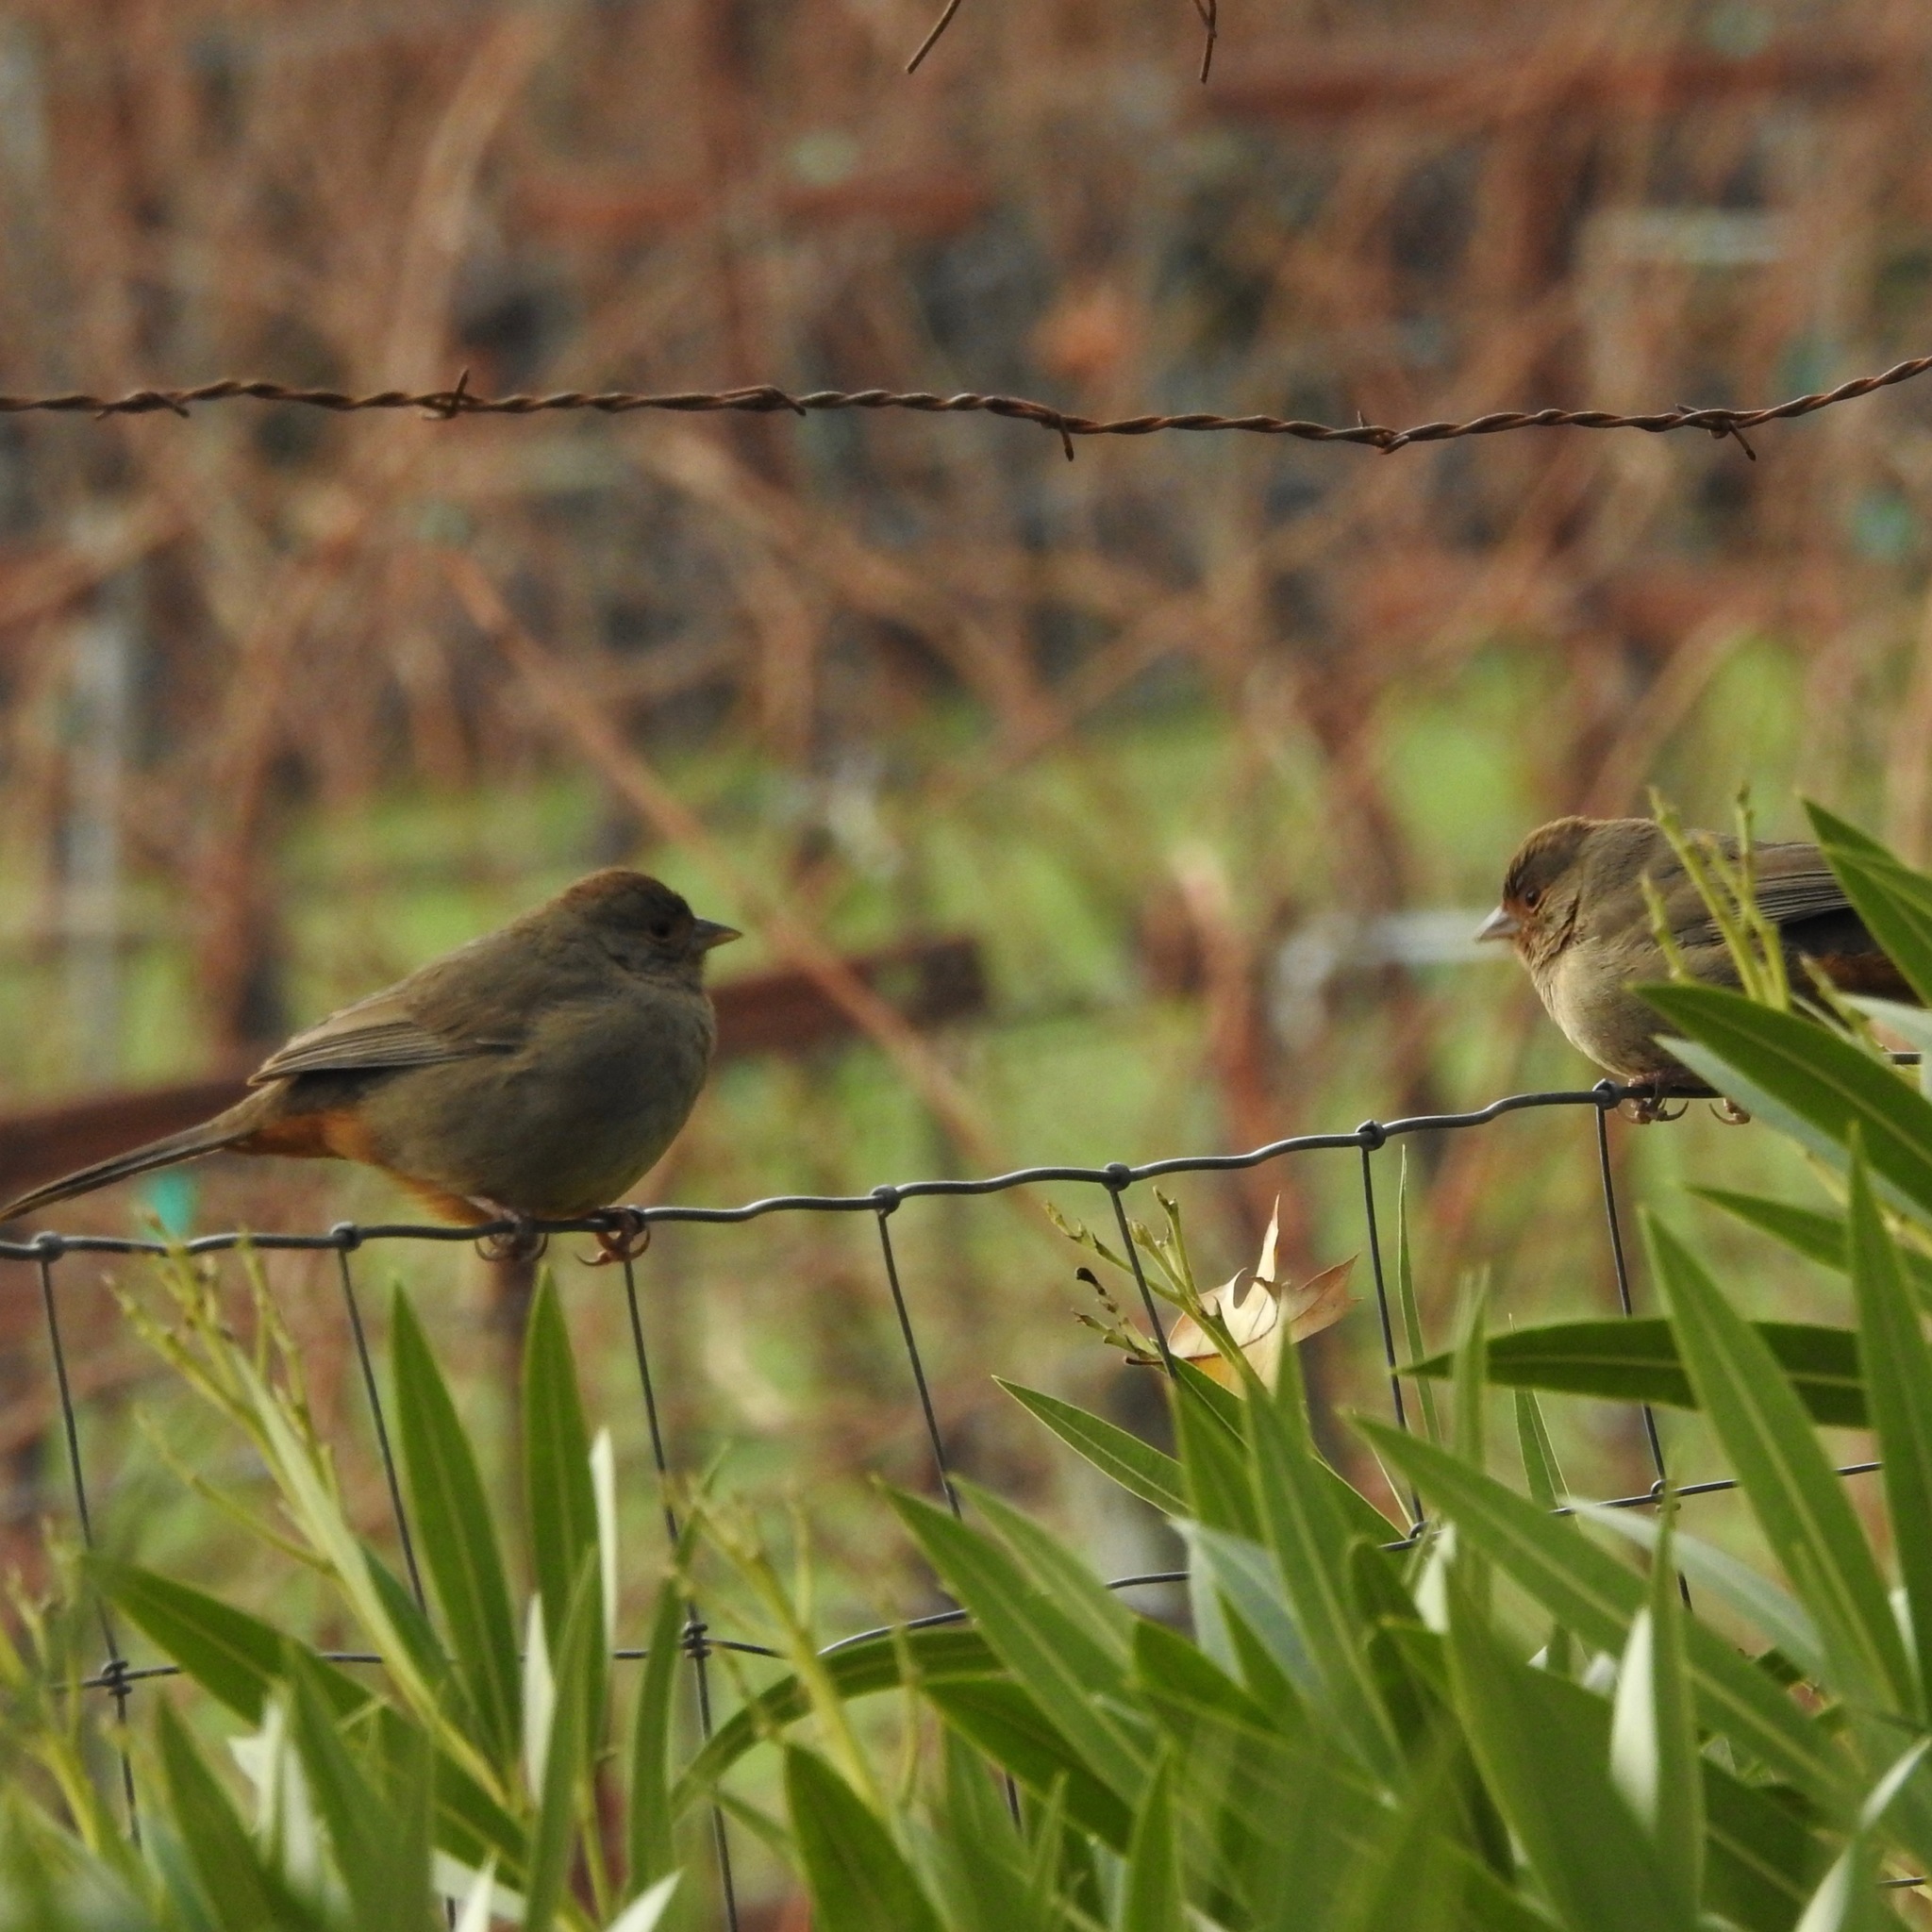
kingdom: Animalia
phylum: Chordata
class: Aves
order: Passeriformes
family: Passerellidae
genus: Melozone
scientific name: Melozone crissalis
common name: California towhee
